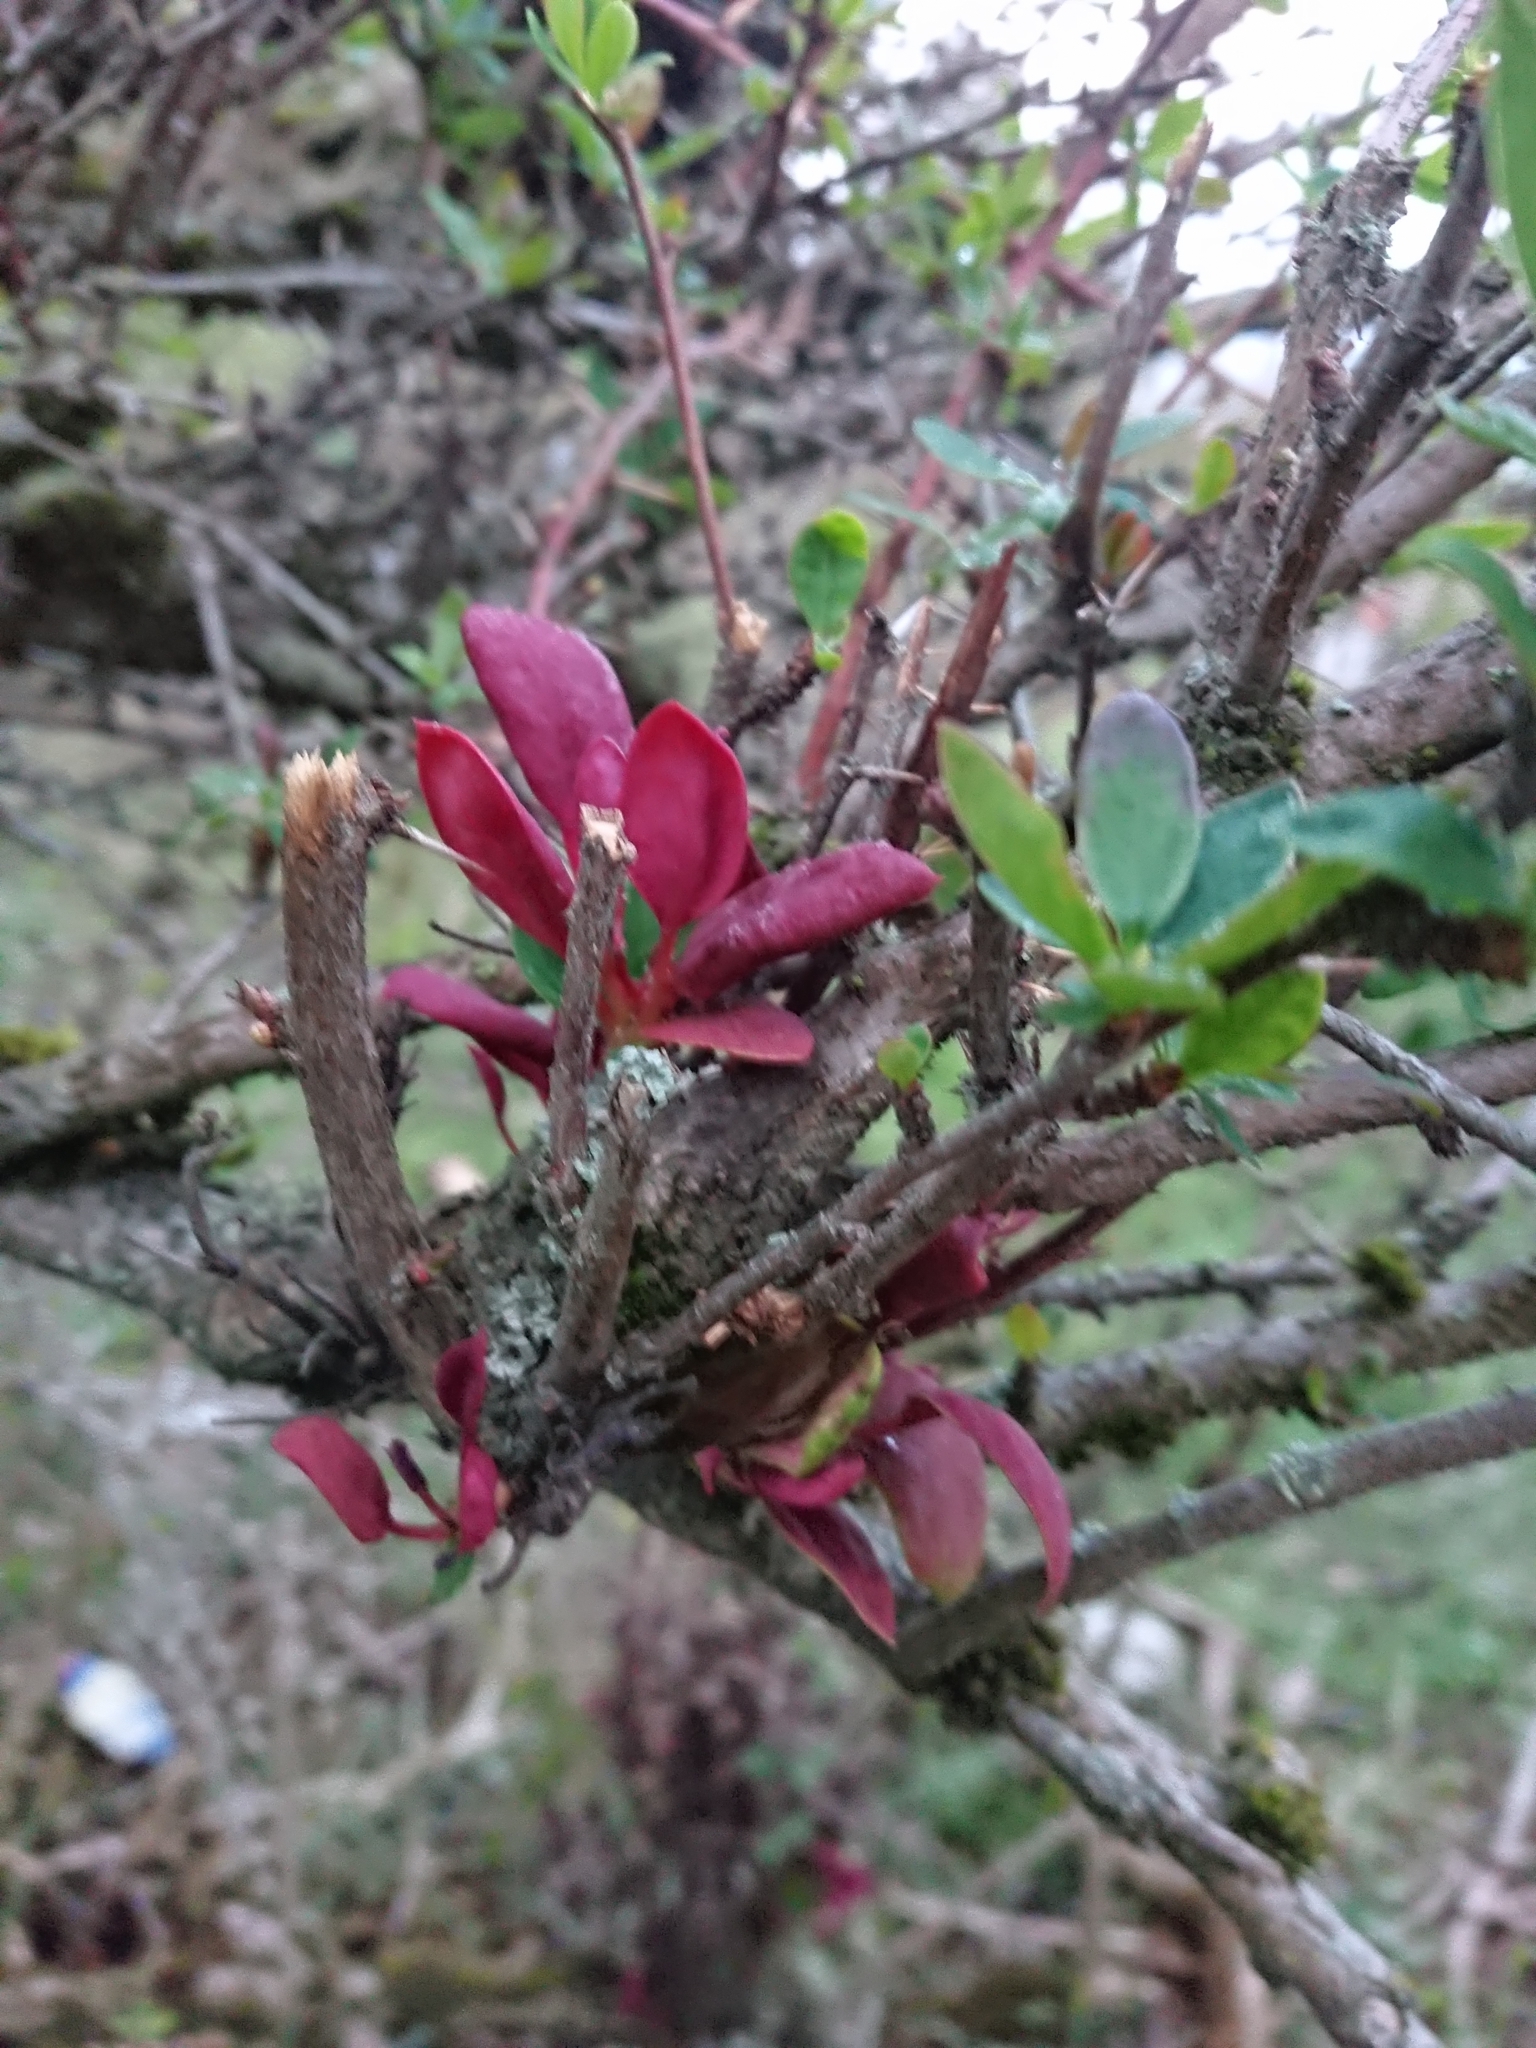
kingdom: Fungi
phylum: Basidiomycota
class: Pucciniomycetes
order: Pucciniales
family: Pucciniaceae
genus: Puccinia
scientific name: Puccinia magellanica
